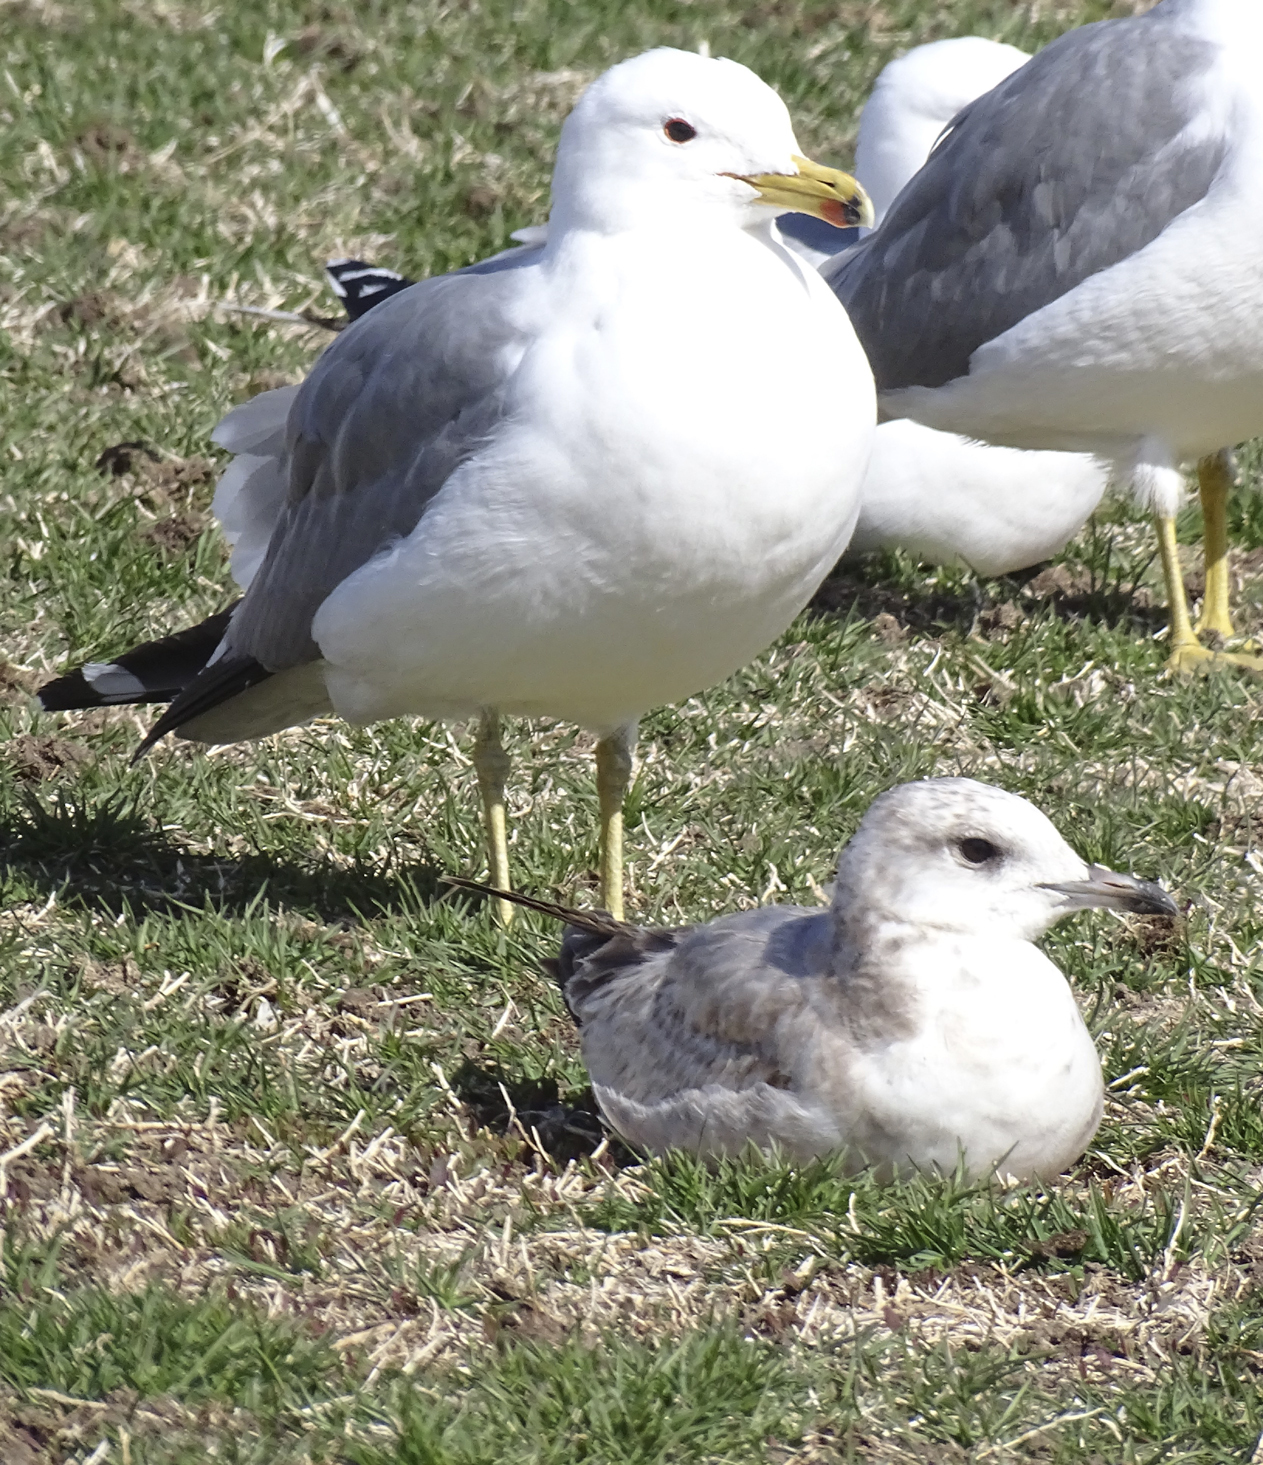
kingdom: Animalia
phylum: Chordata
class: Aves
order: Charadriiformes
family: Laridae
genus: Larus
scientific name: Larus brachyrhynchus
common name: Short-billed gull
